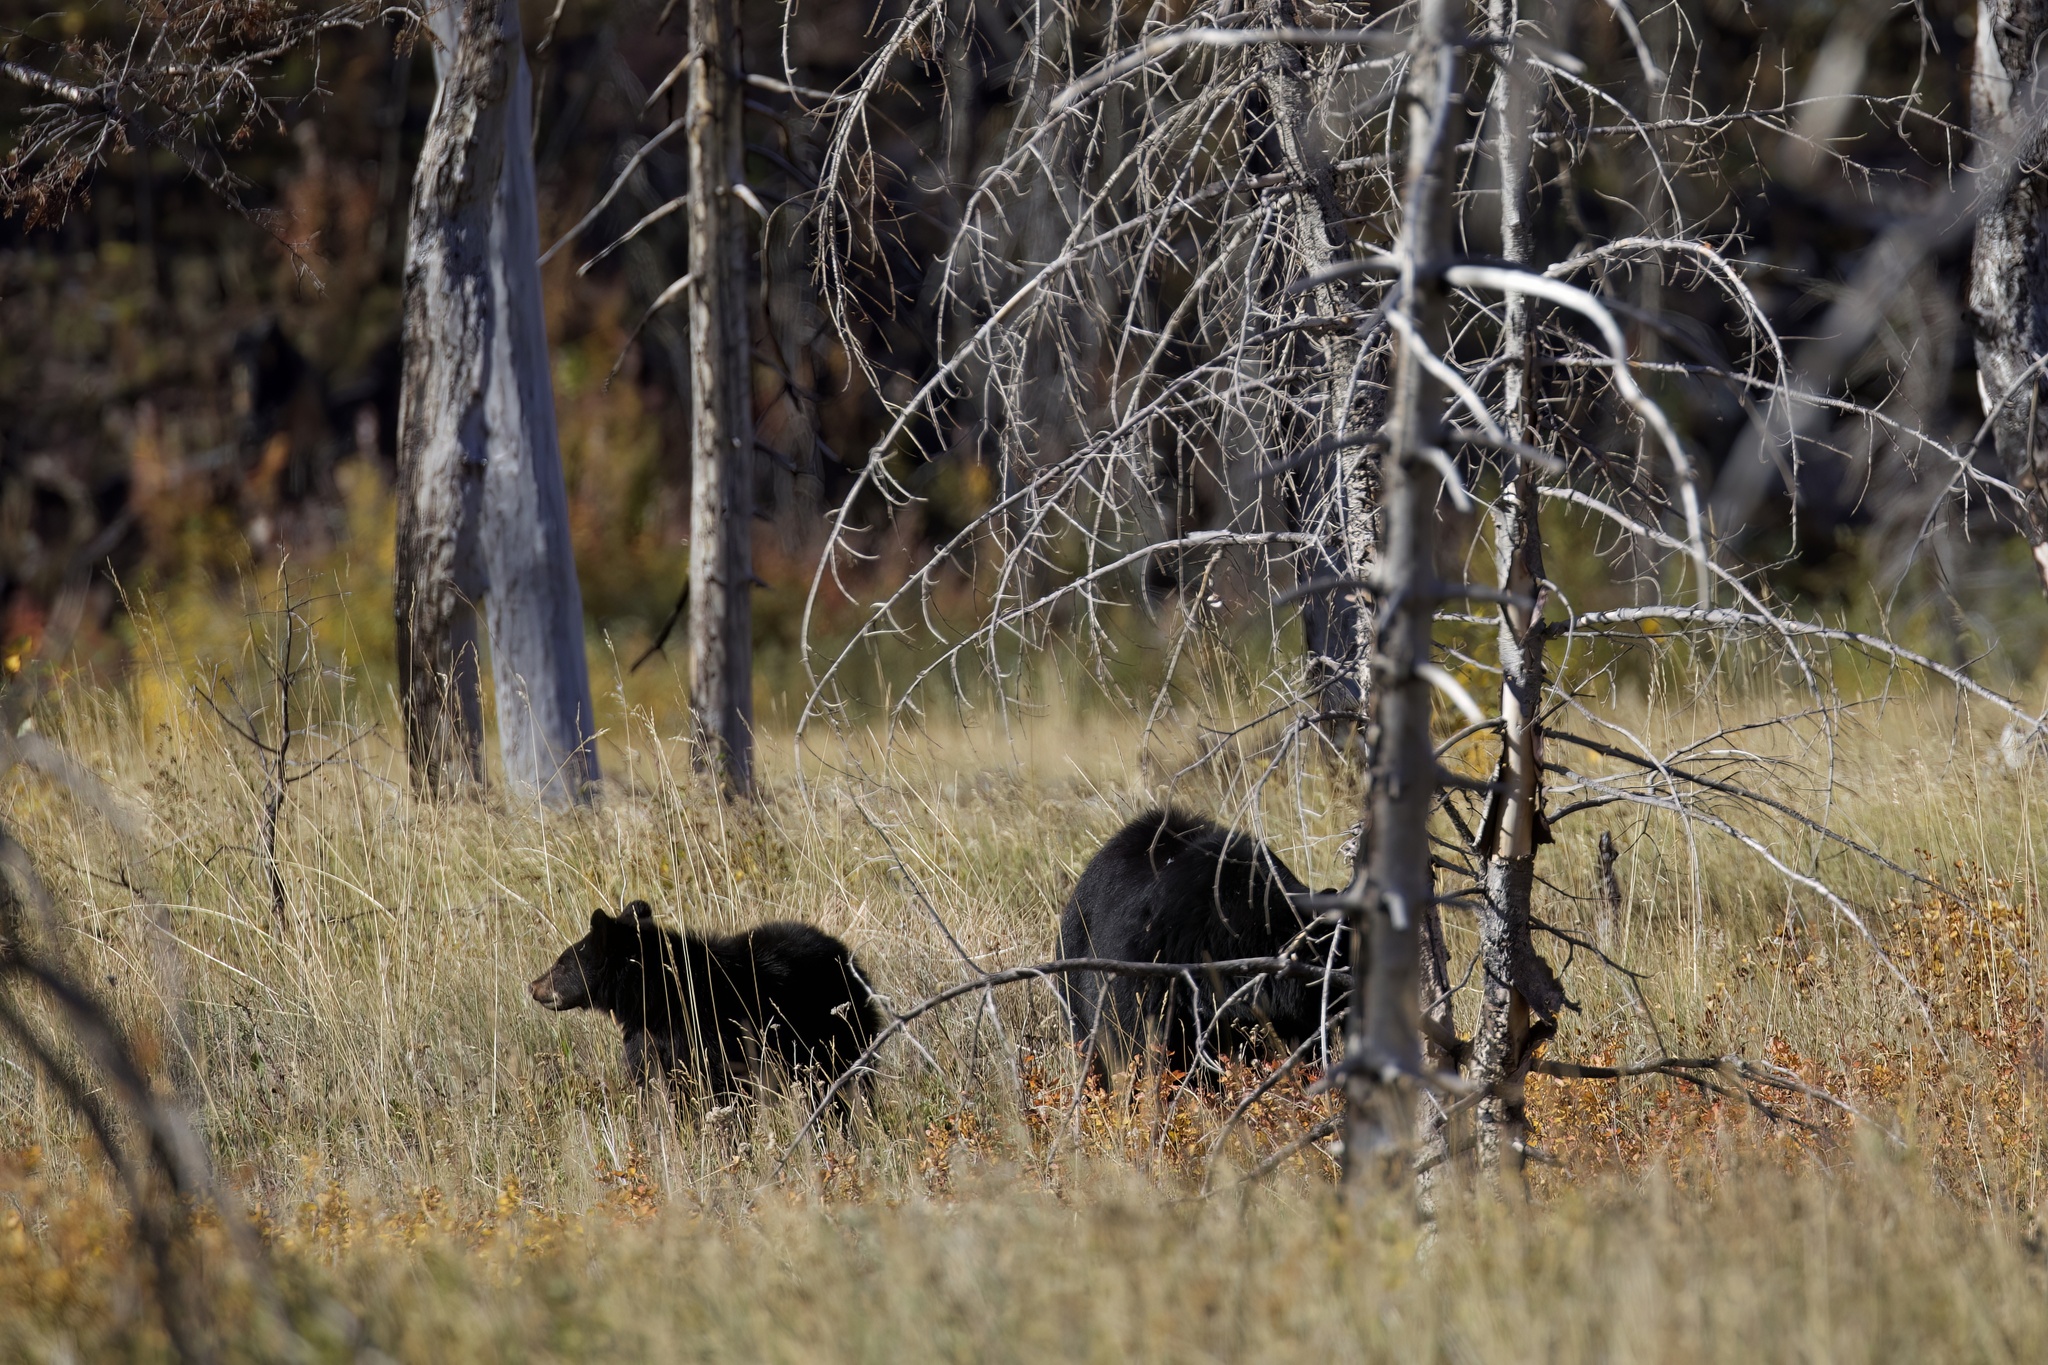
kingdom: Animalia
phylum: Chordata
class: Mammalia
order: Carnivora
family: Ursidae
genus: Ursus
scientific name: Ursus americanus
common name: American black bear
